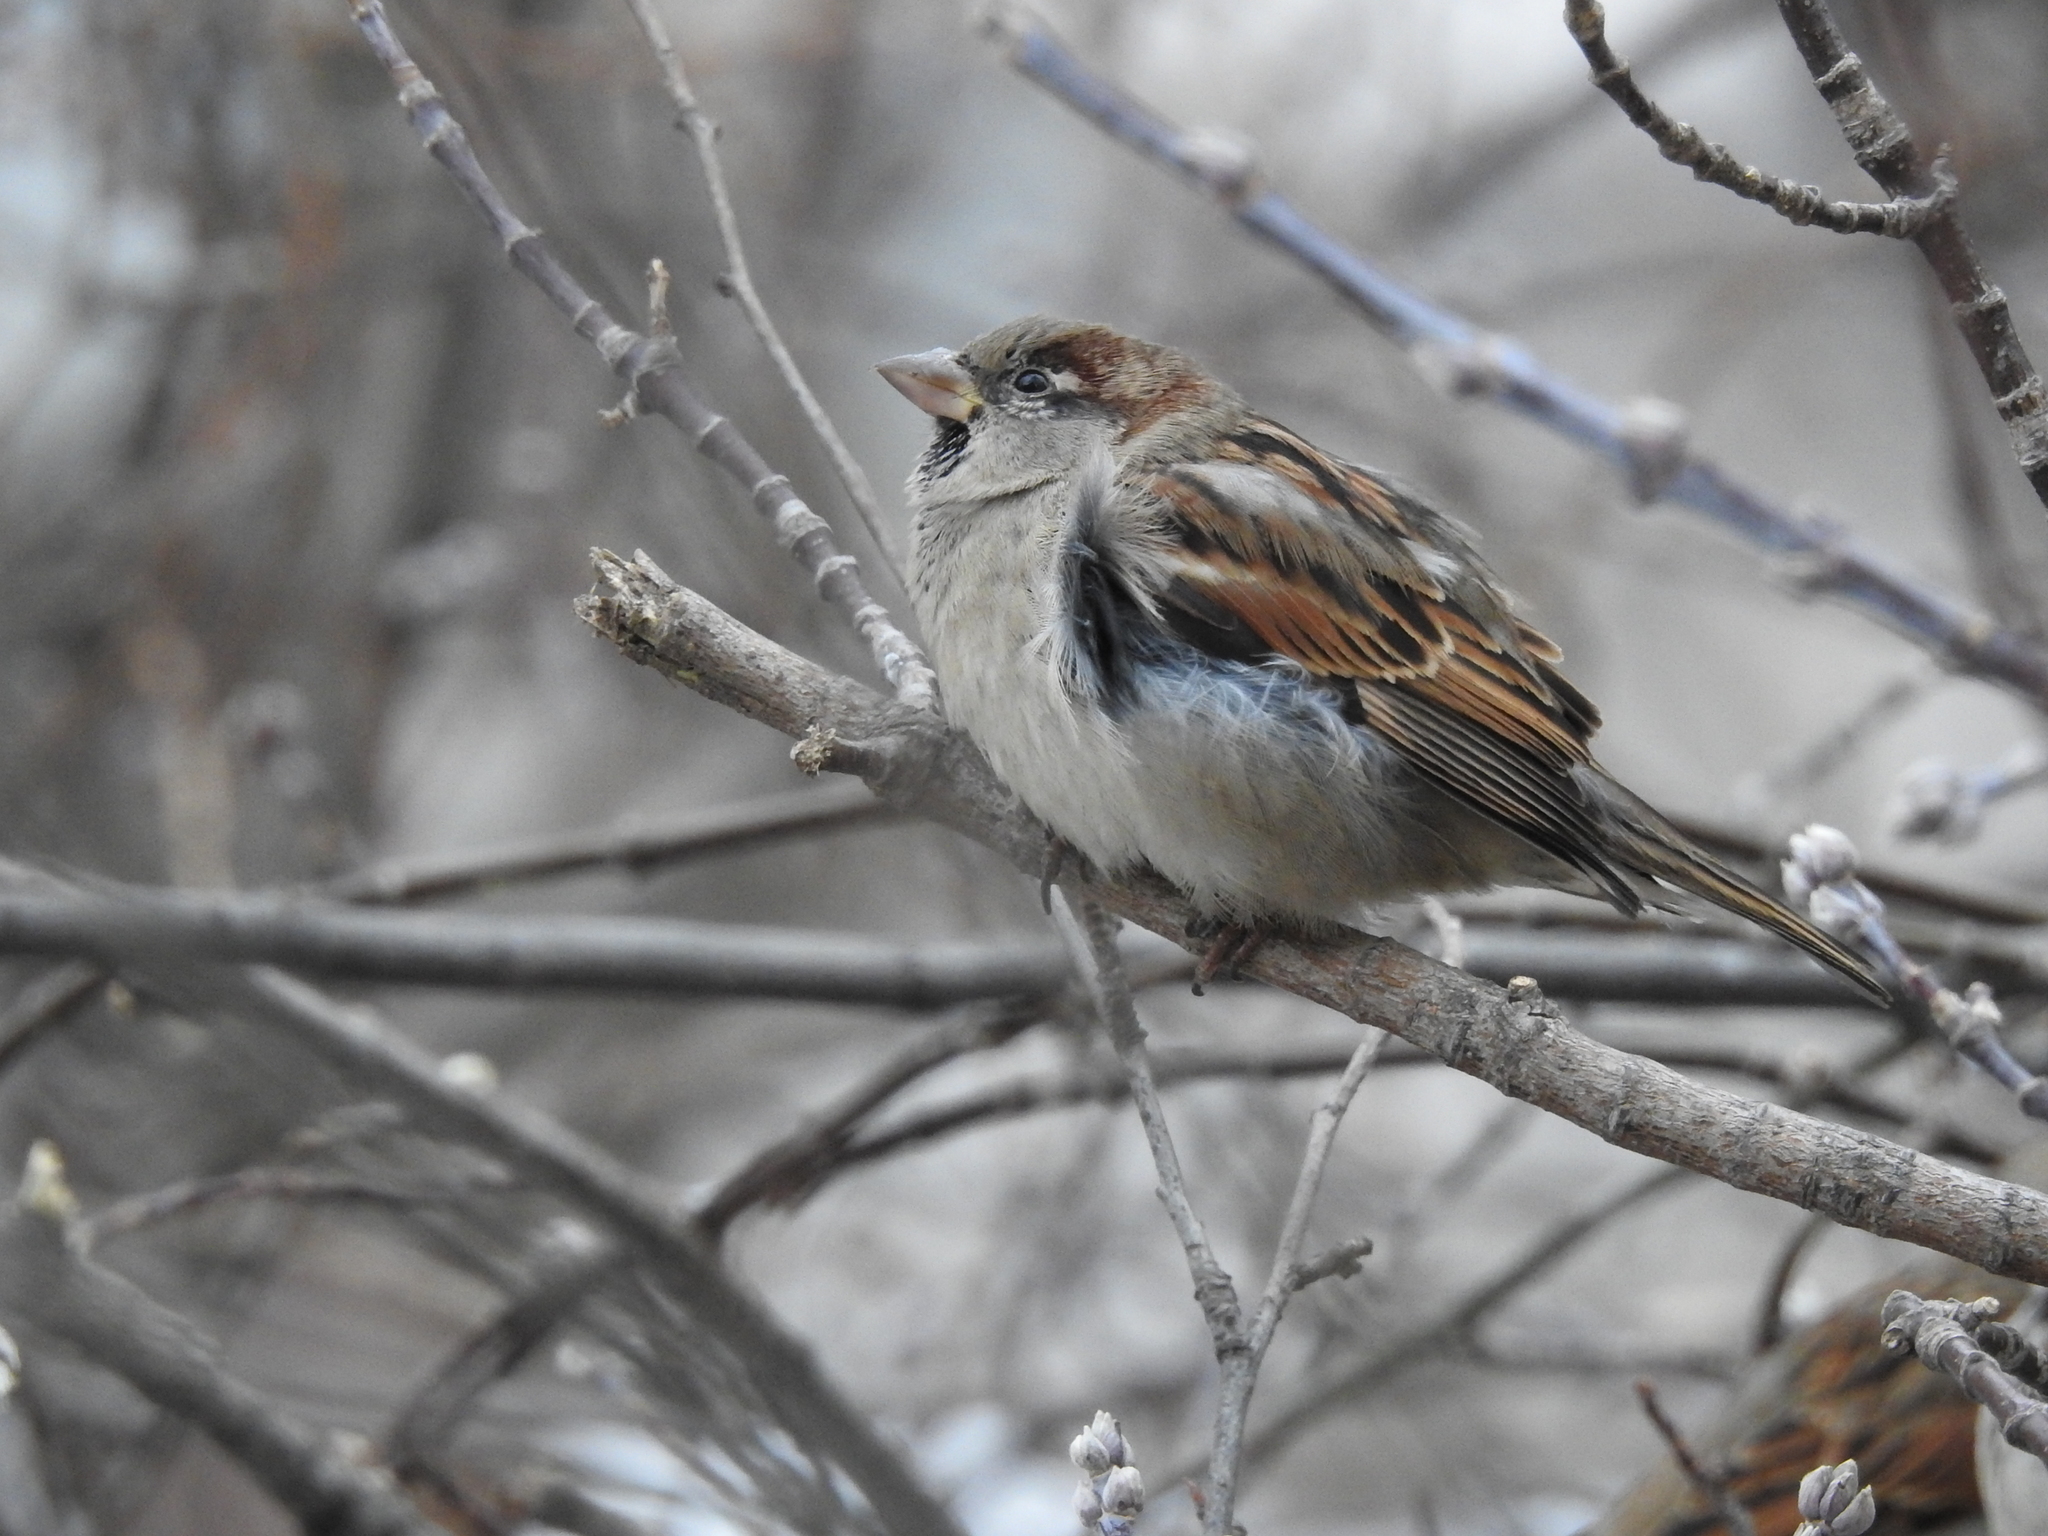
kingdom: Animalia
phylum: Chordata
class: Aves
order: Passeriformes
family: Passeridae
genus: Passer
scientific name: Passer domesticus
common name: House sparrow
